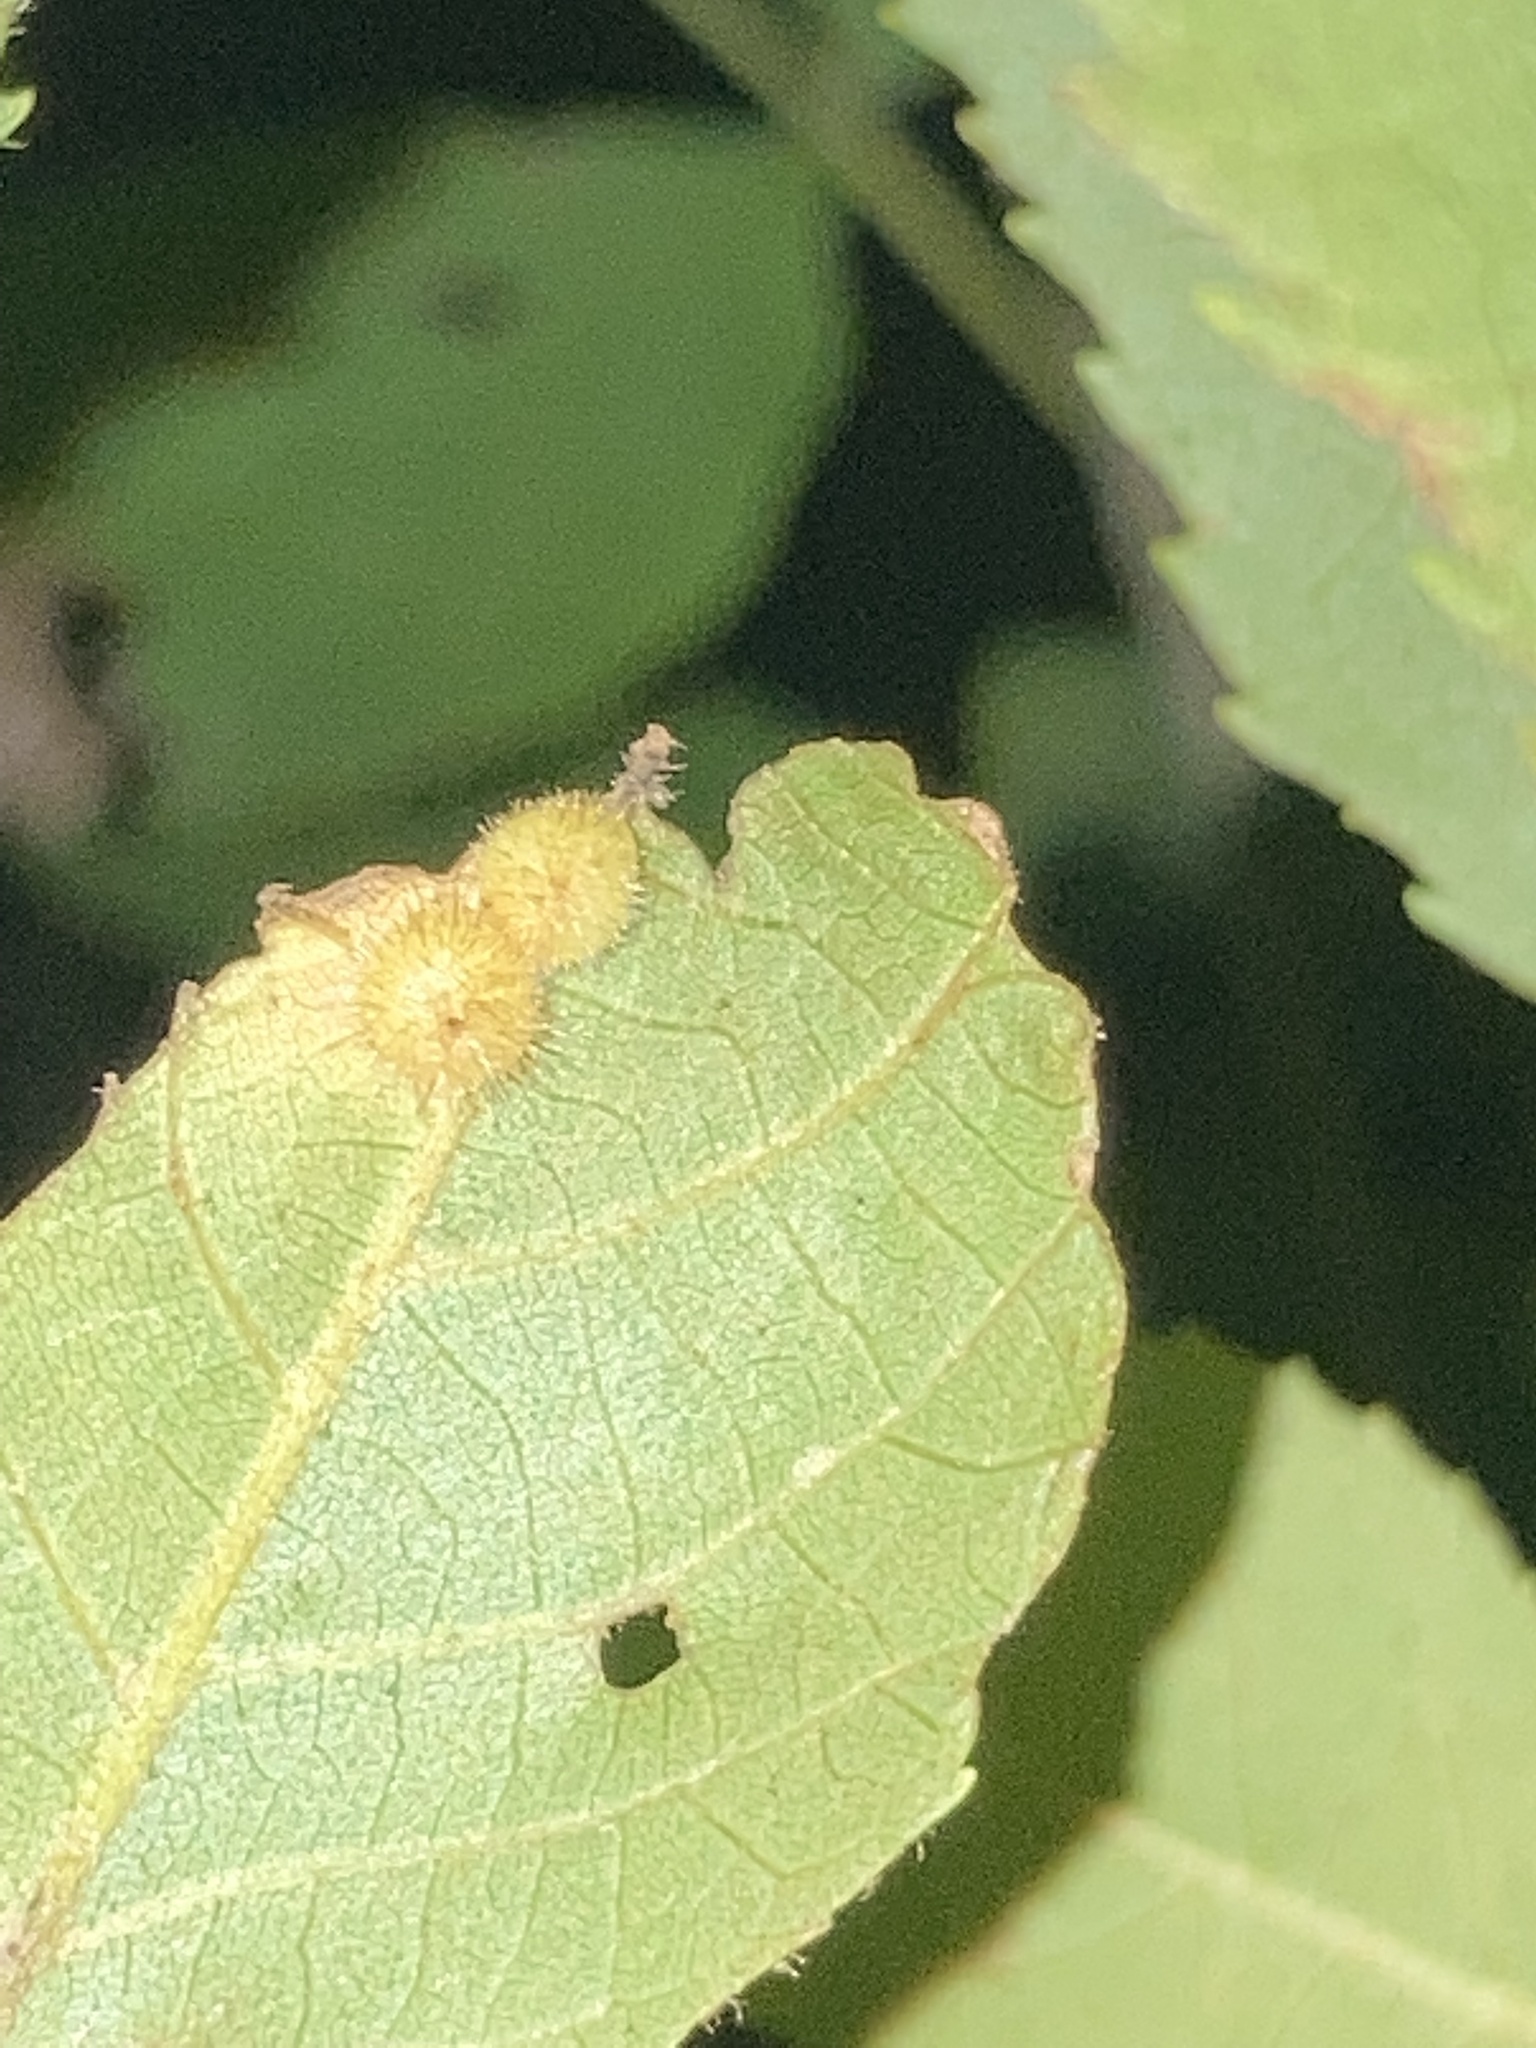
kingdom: Animalia
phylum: Arthropoda
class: Insecta
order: Diptera
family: Cecidomyiidae
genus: Caryomyia
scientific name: Caryomyia thompsoni
